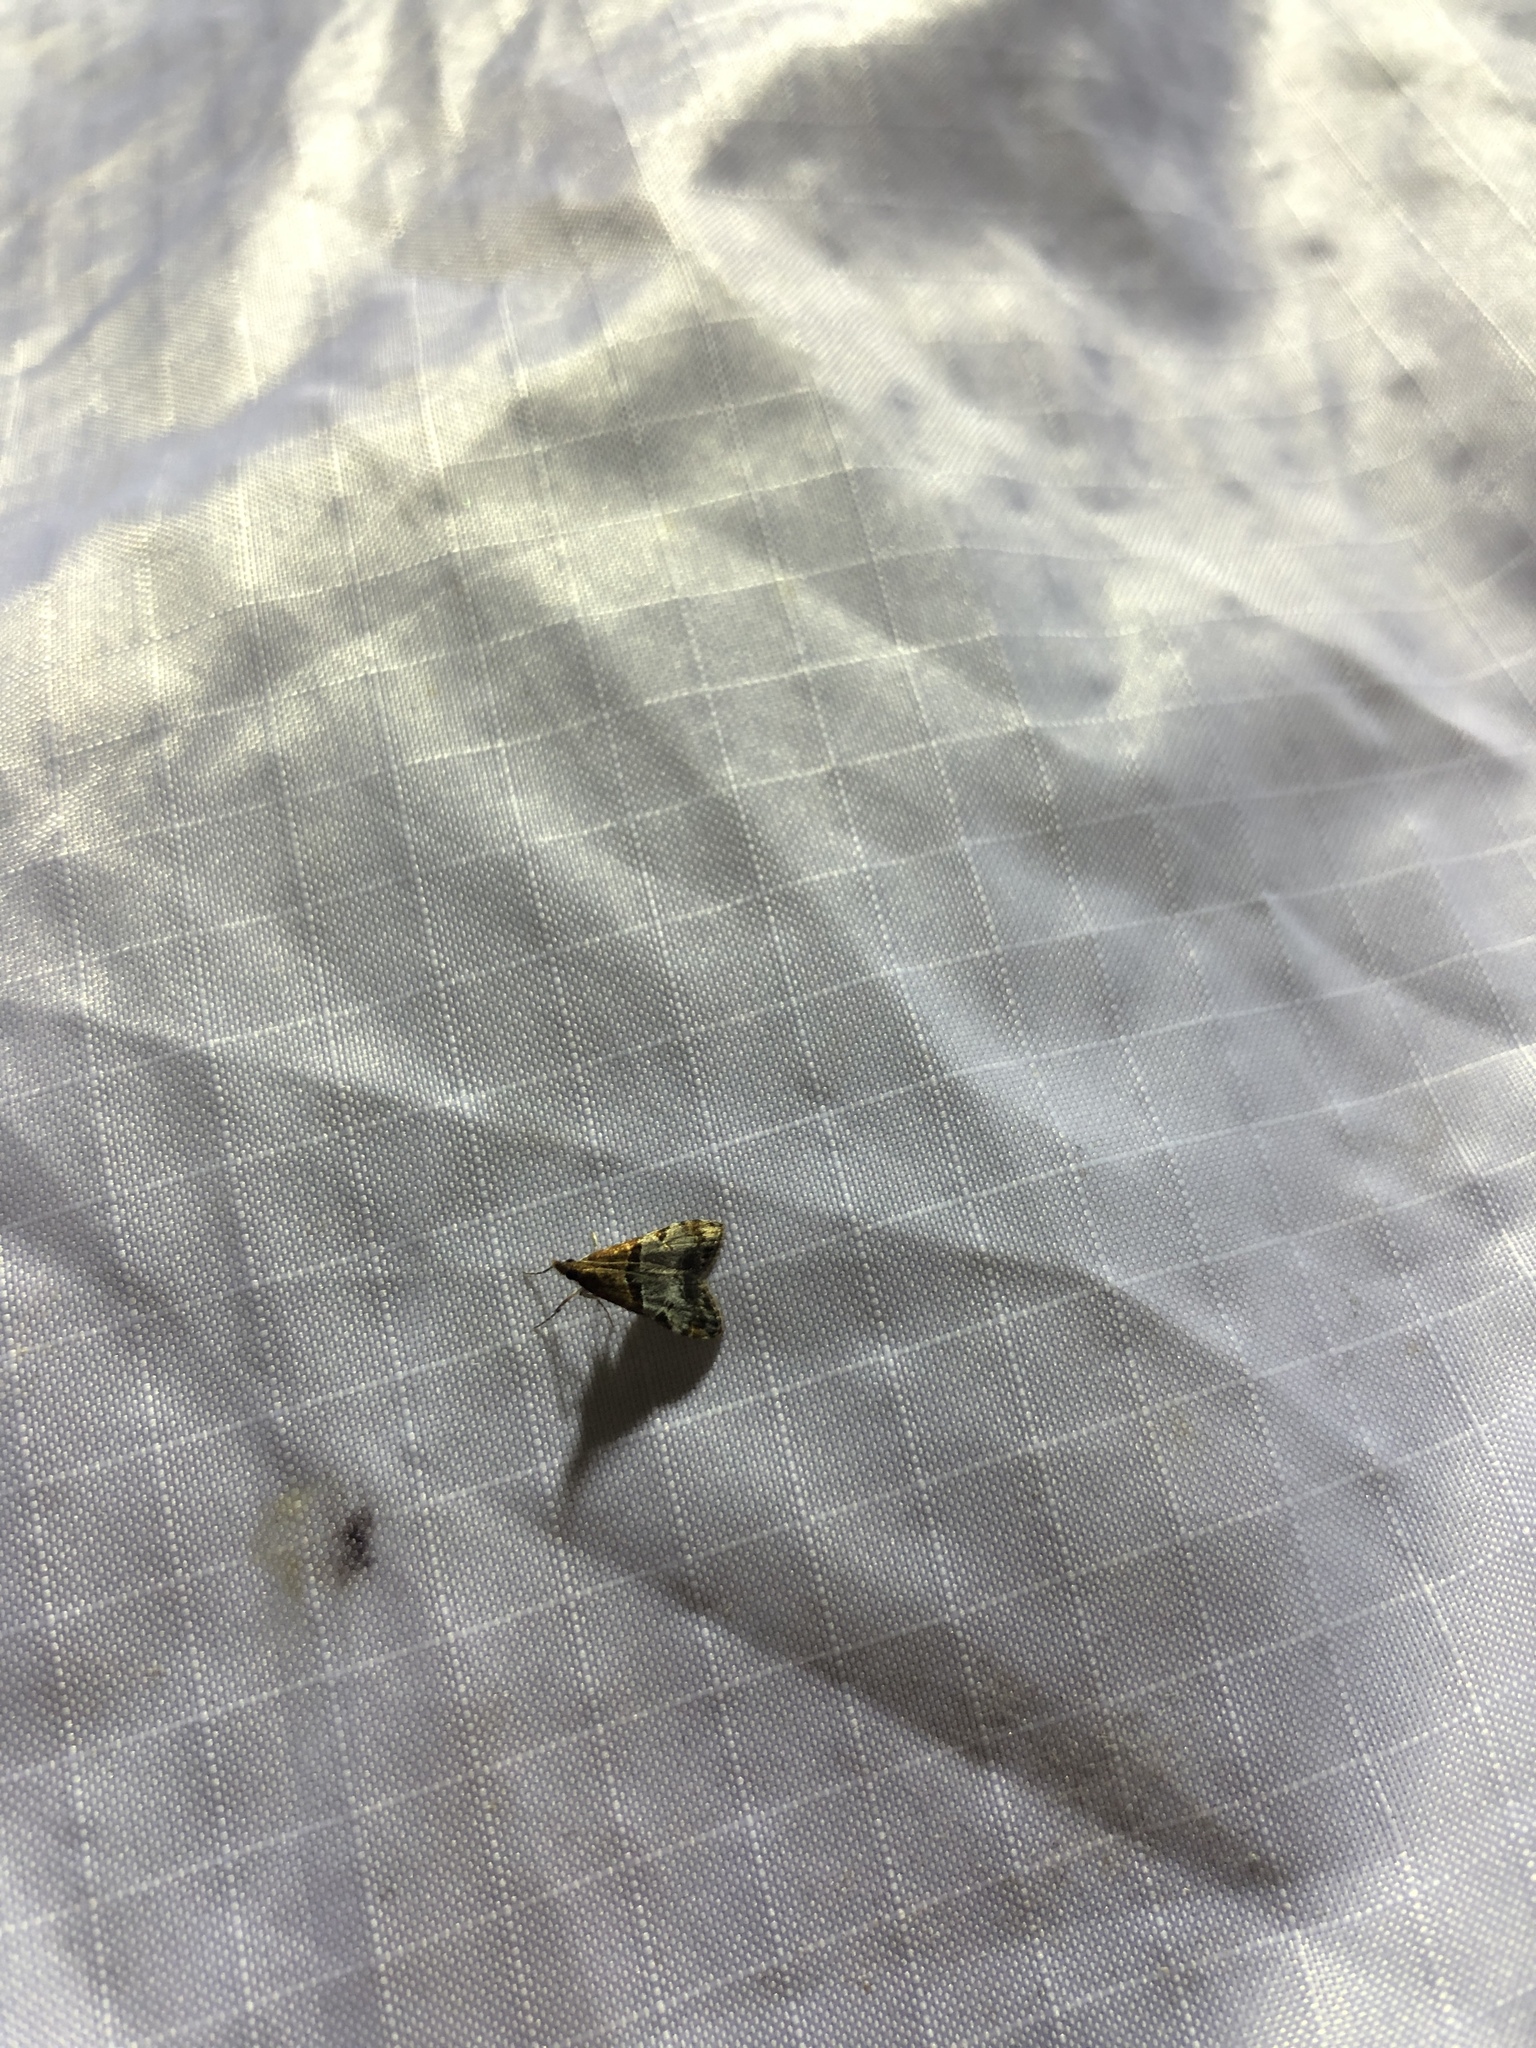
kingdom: Animalia
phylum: Arthropoda
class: Insecta
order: Lepidoptera
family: Crambidae
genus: Antiscopa
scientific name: Antiscopa epicomia
